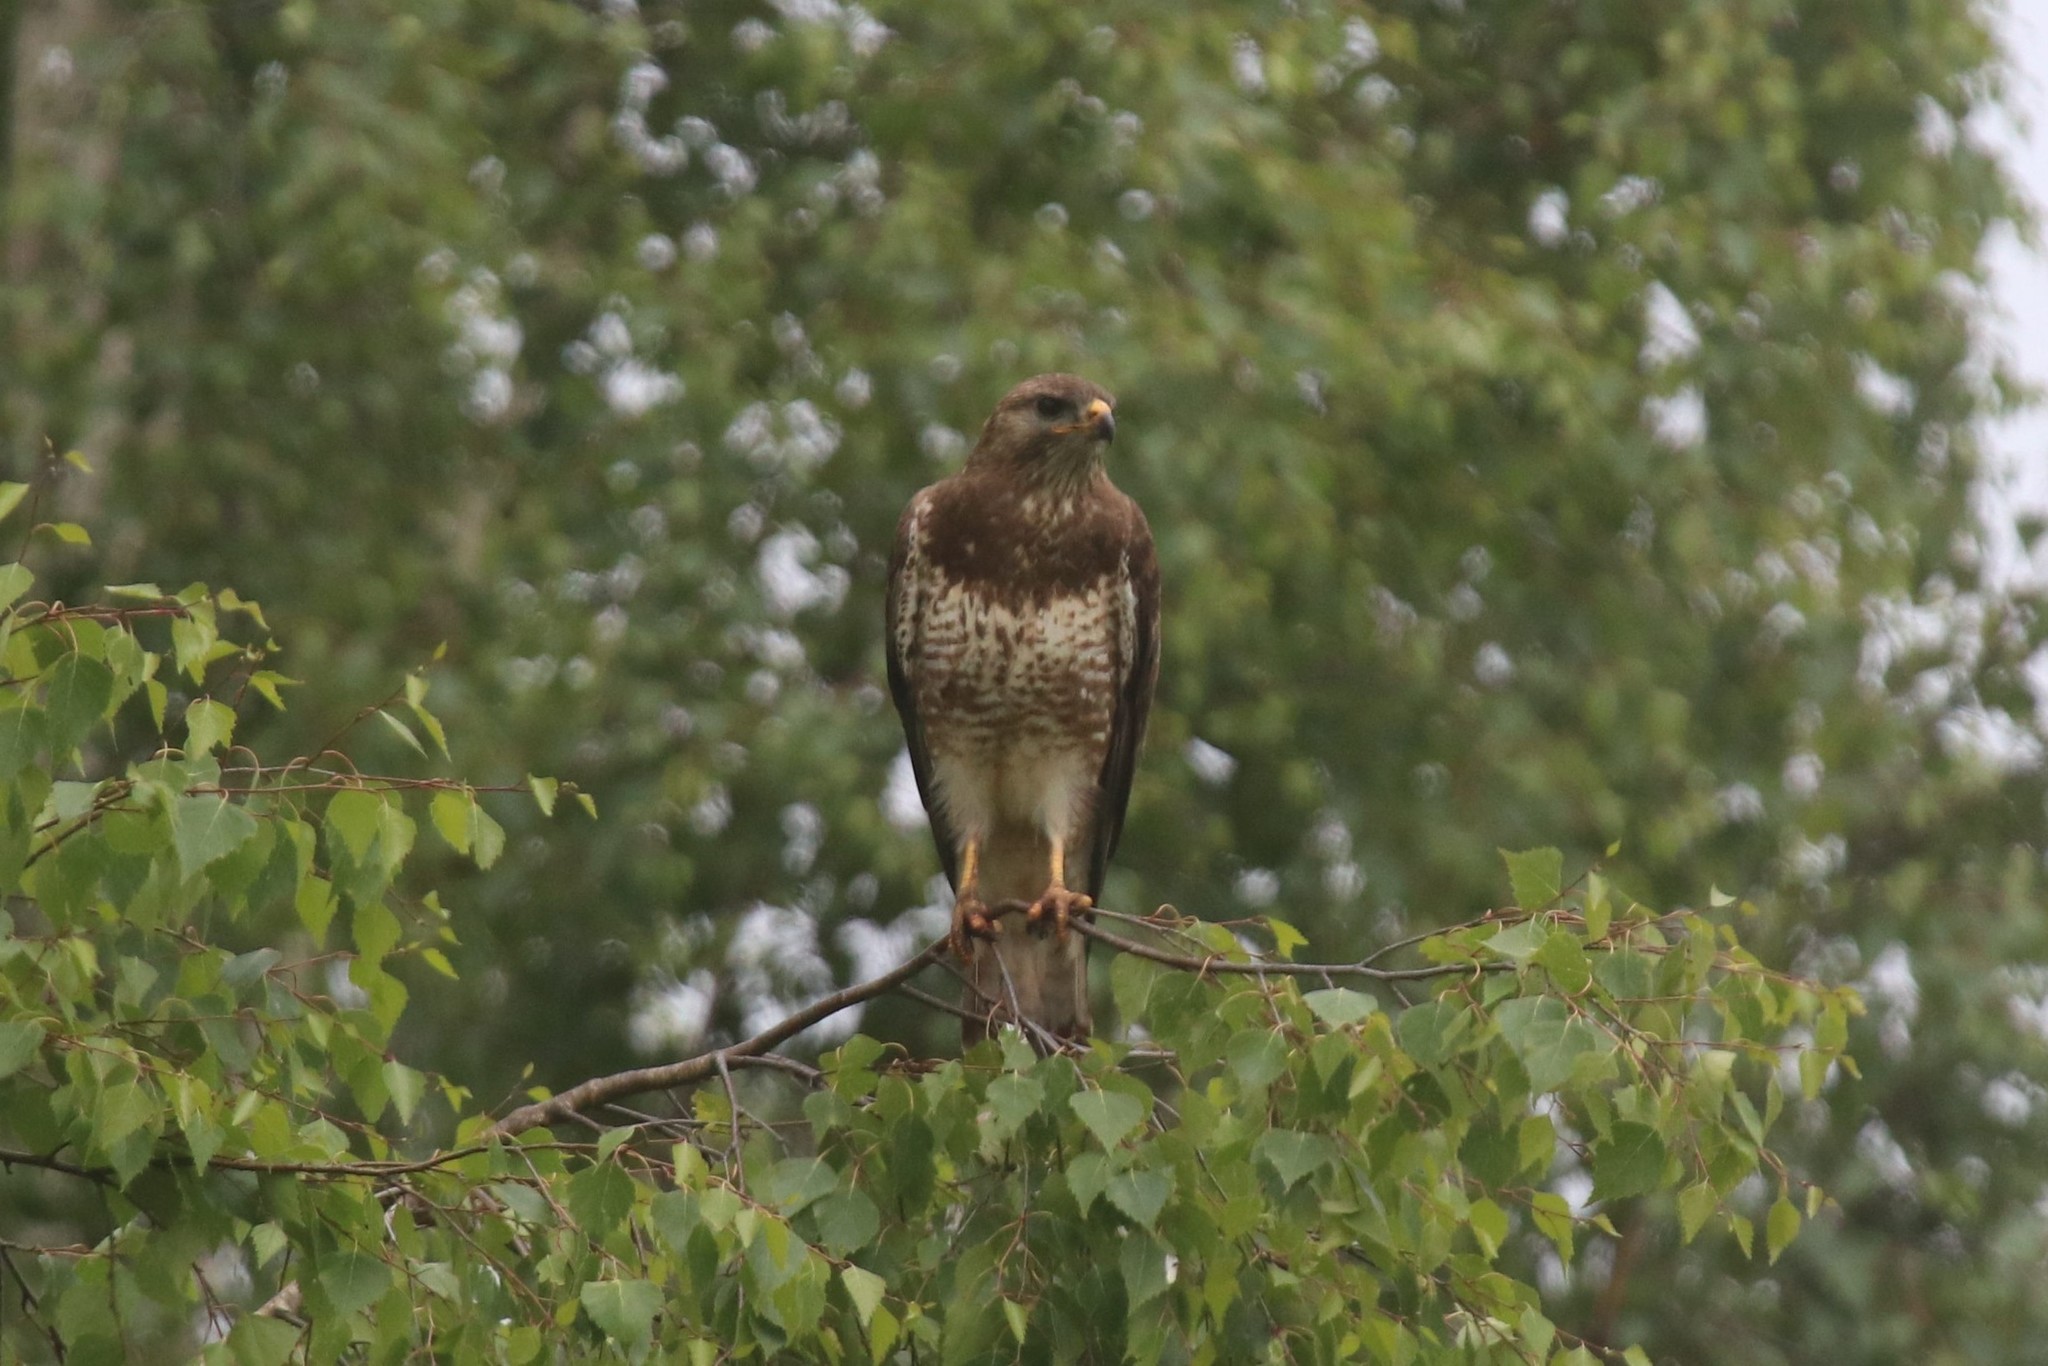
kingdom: Animalia
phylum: Chordata
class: Aves
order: Accipitriformes
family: Accipitridae
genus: Buteo
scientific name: Buteo buteo
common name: Common buzzard
